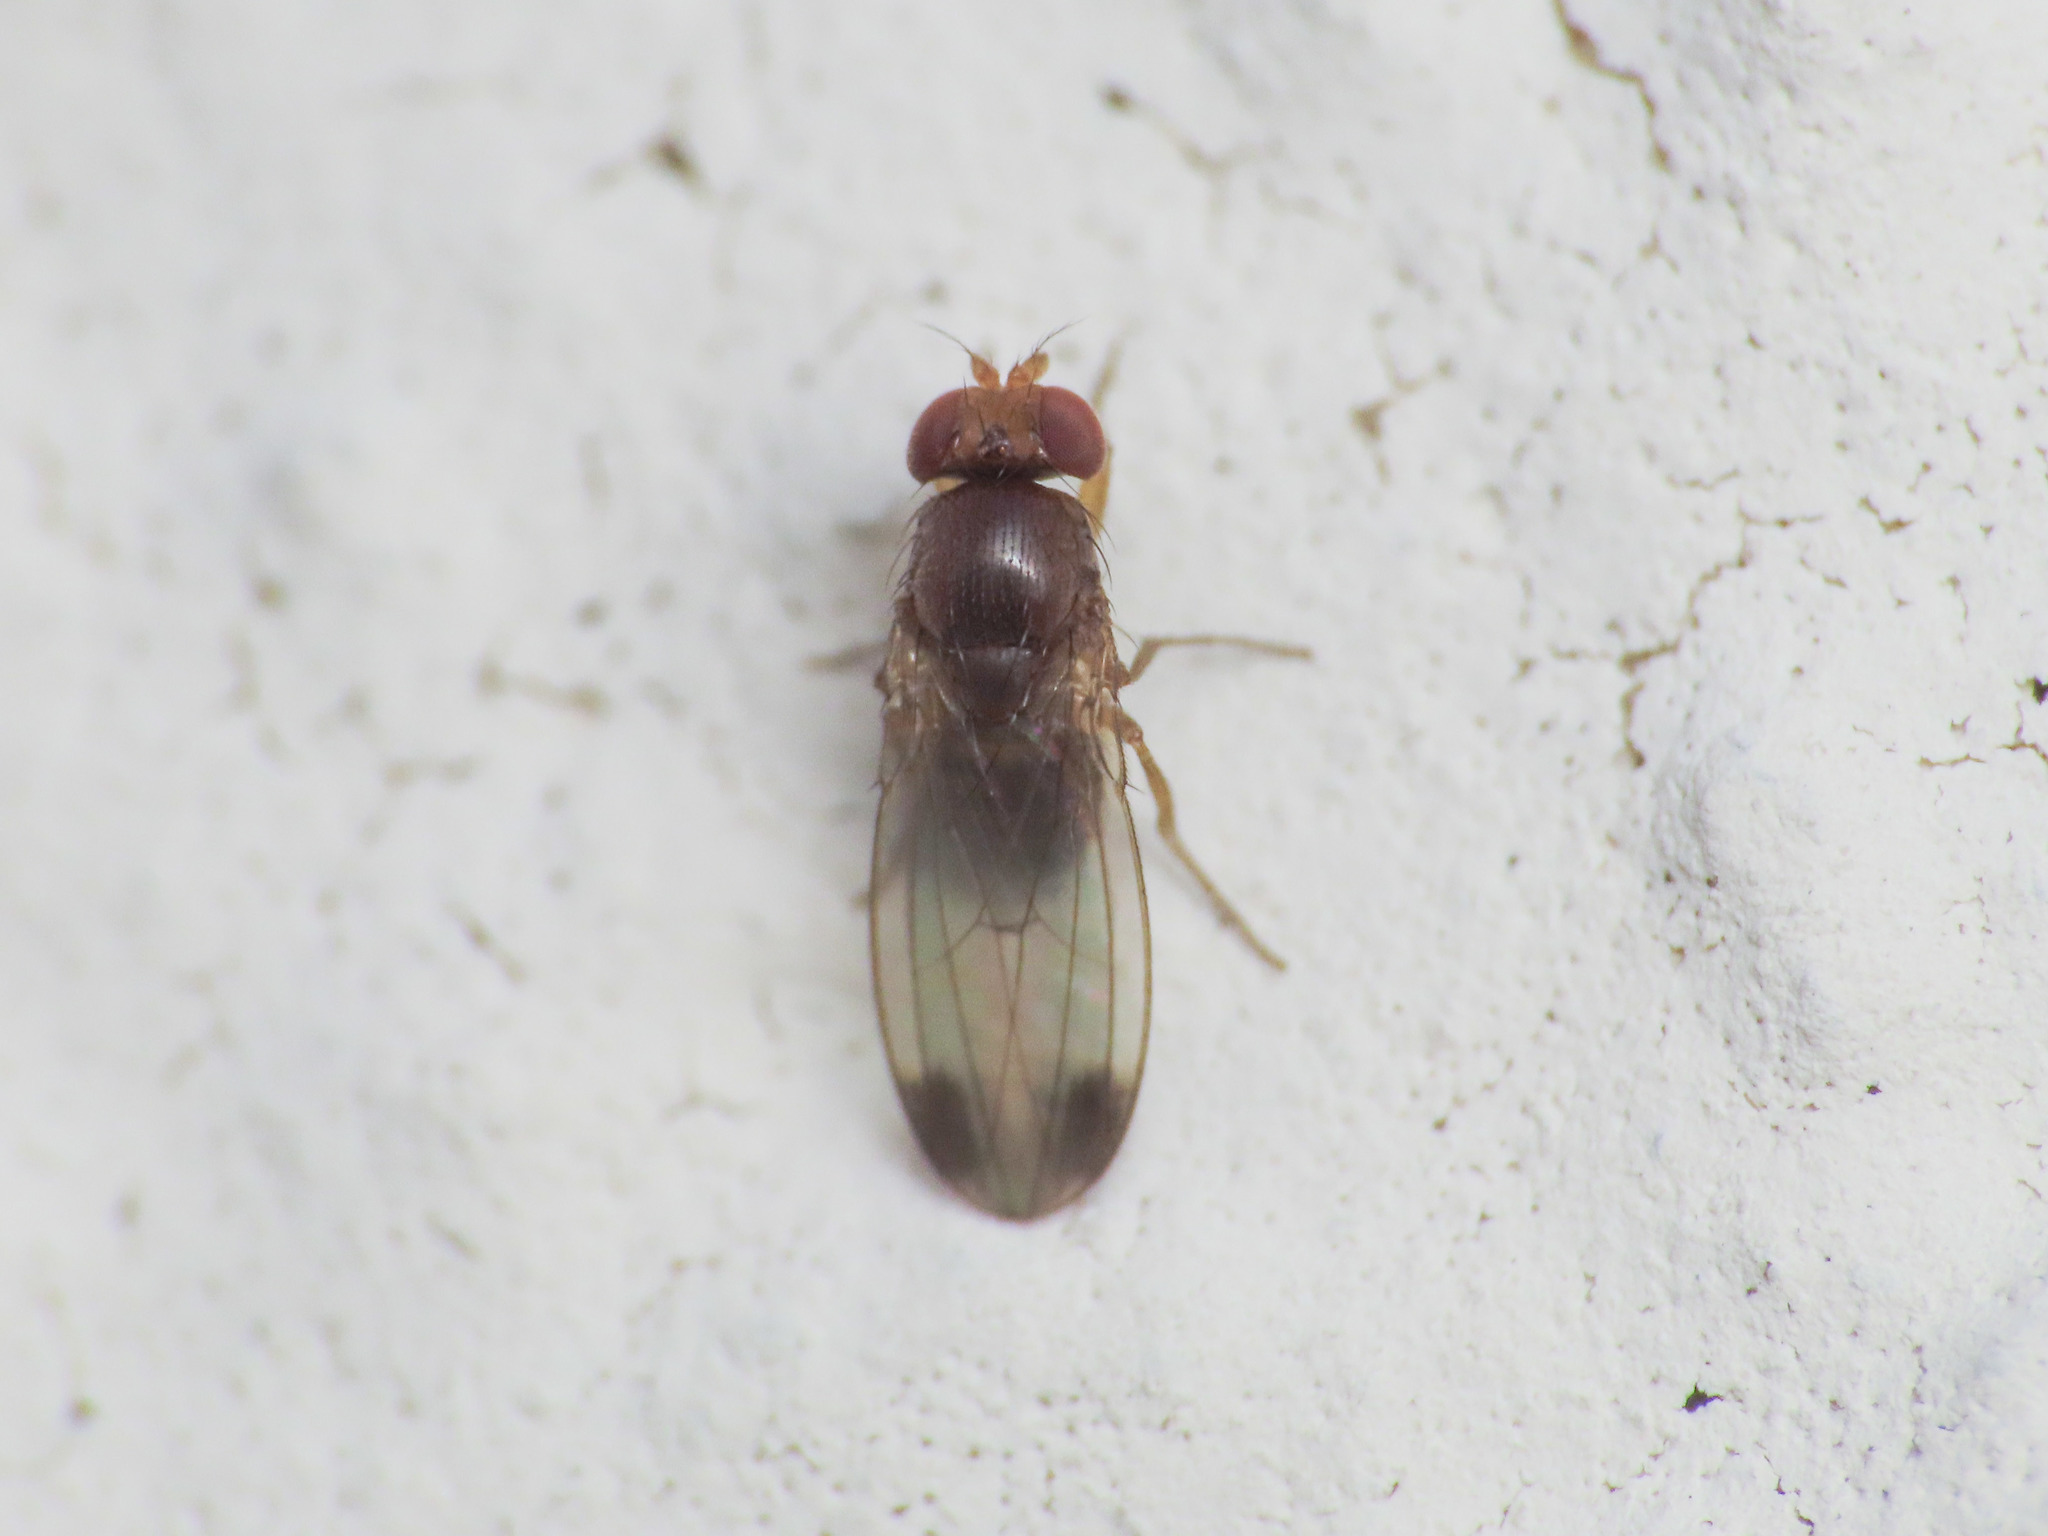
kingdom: Animalia
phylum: Arthropoda
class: Insecta
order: Diptera
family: Drosophilidae
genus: Drosophila
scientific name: Drosophila suzukii
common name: Spotted-wing drosophila
